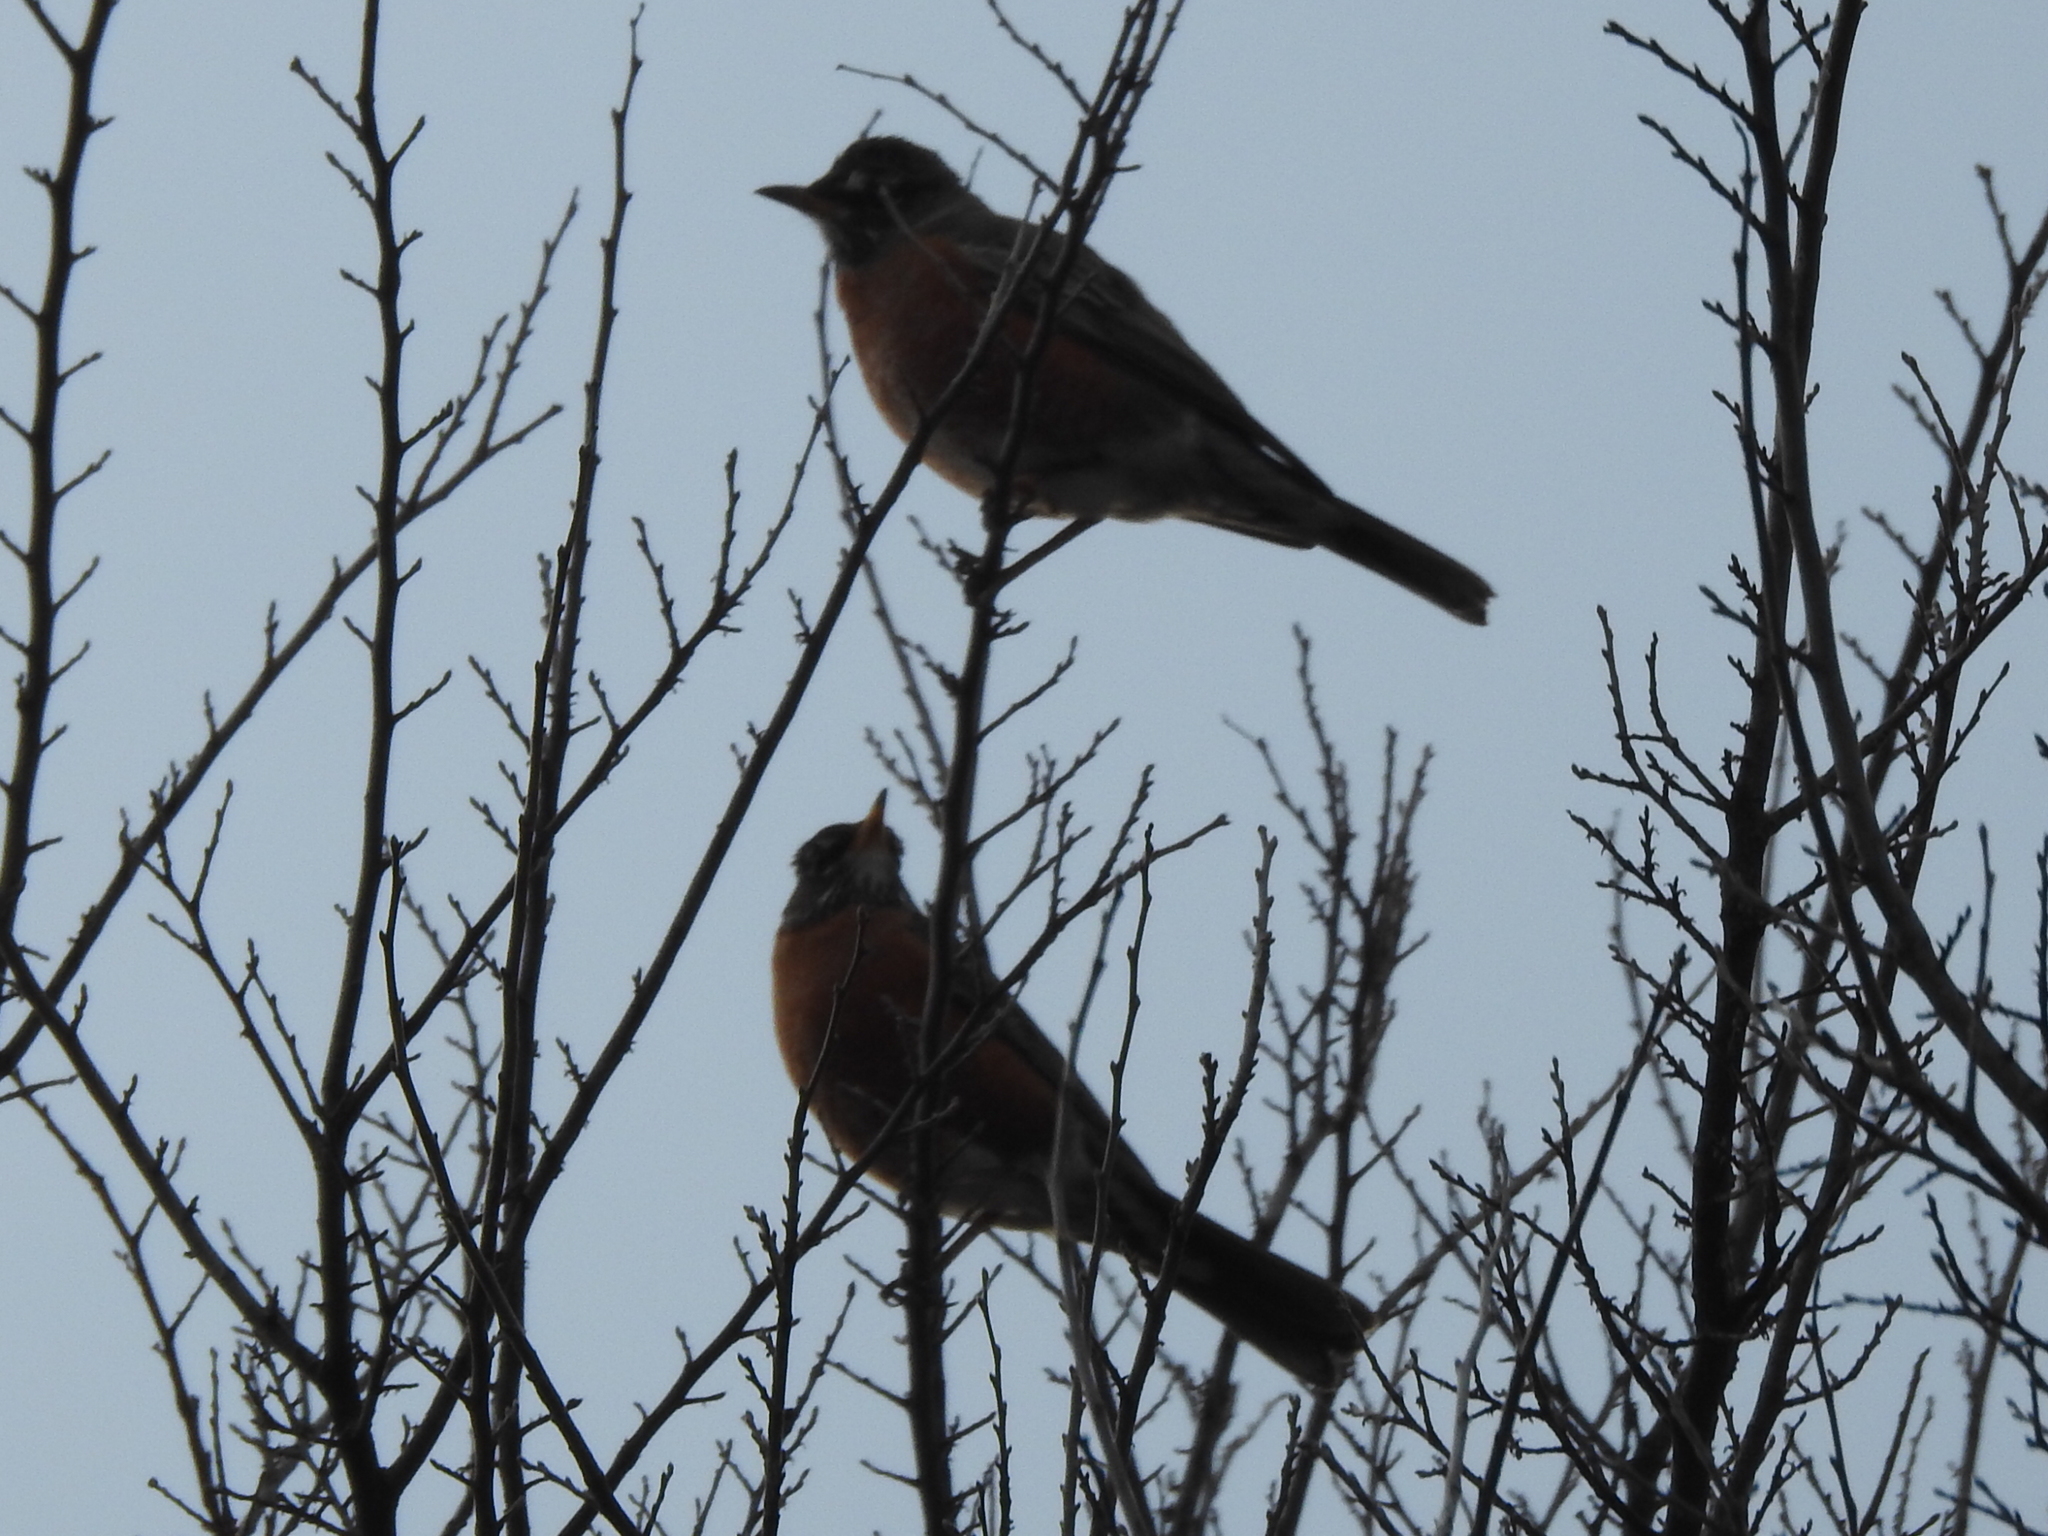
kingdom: Animalia
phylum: Chordata
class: Aves
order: Passeriformes
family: Turdidae
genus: Turdus
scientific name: Turdus migratorius
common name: American robin
